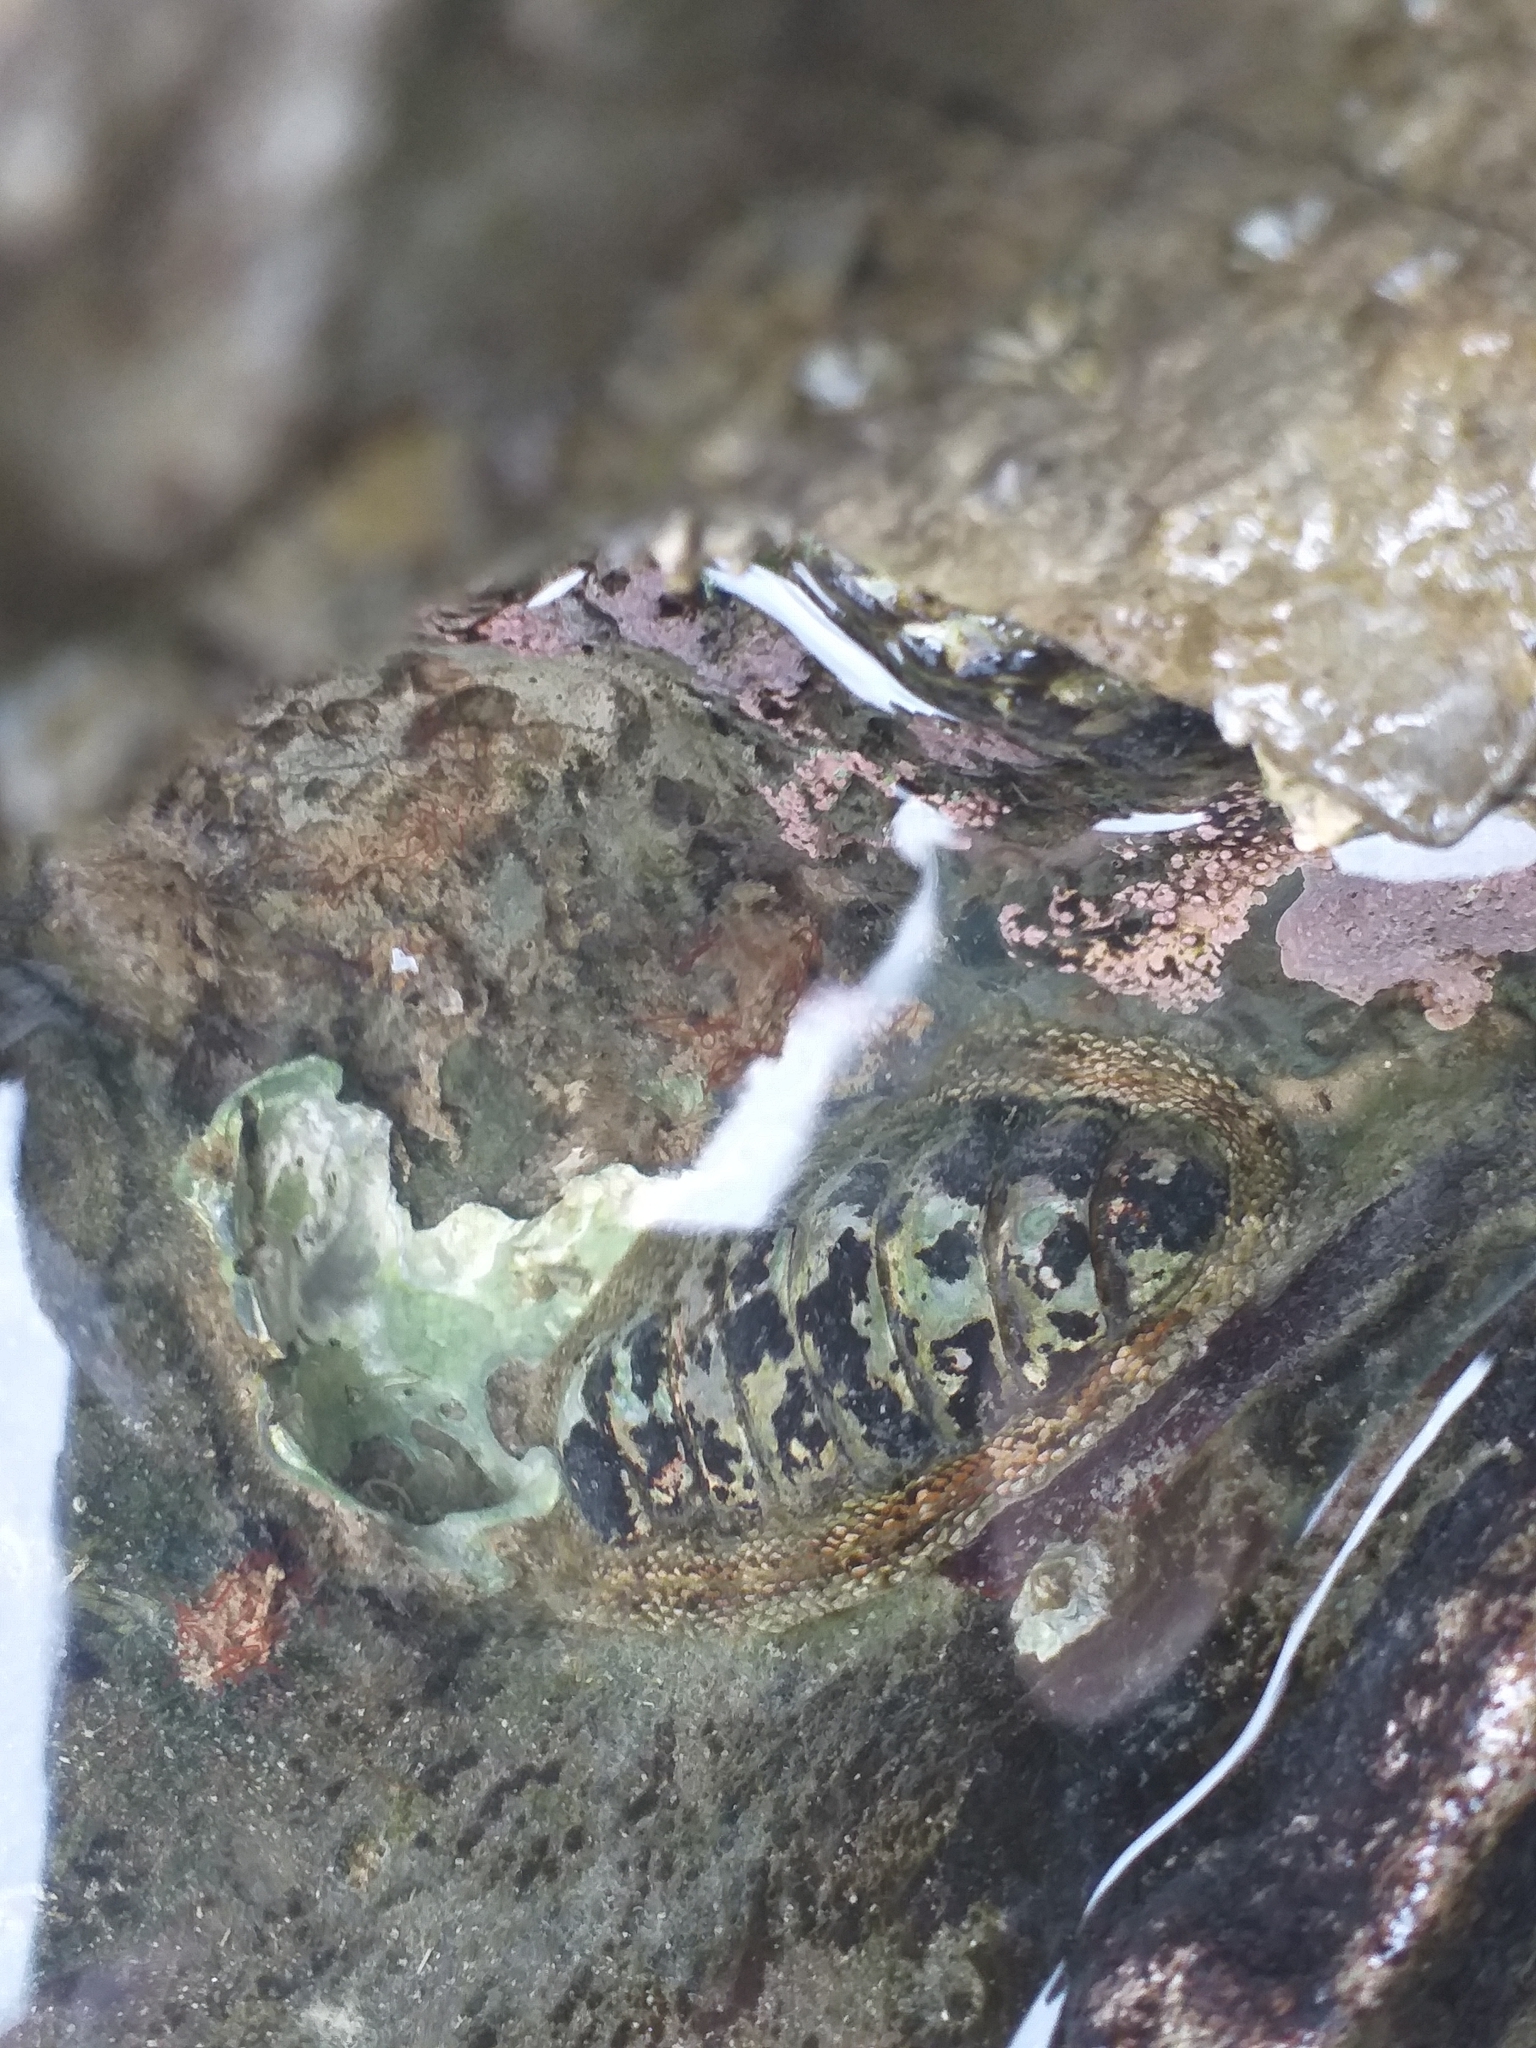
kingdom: Animalia
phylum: Mollusca
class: Polyplacophora
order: Chitonida
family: Chitonidae
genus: Sypharochiton
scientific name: Sypharochiton pelliserpentis
